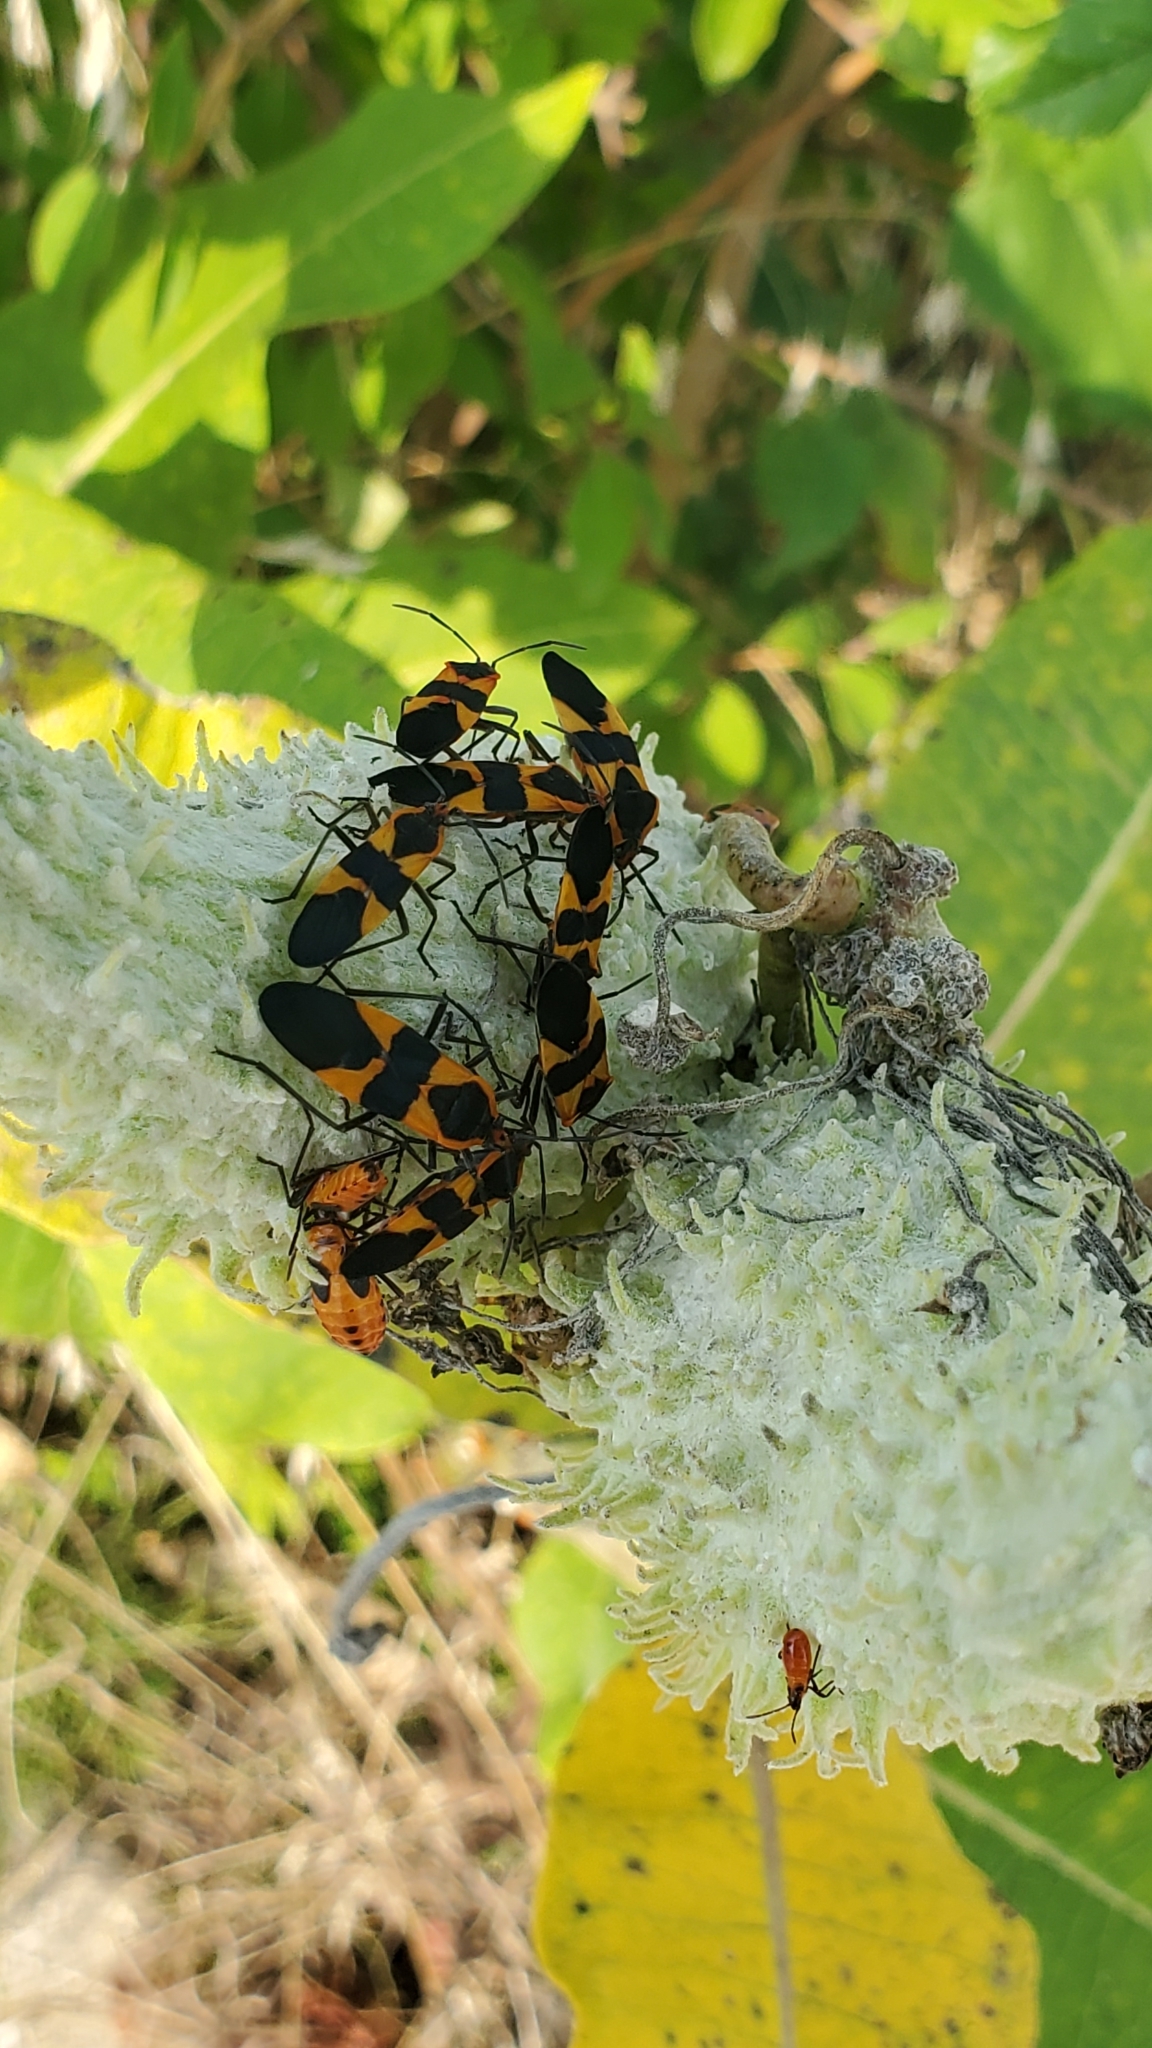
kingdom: Animalia
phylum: Arthropoda
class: Insecta
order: Hemiptera
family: Lygaeidae
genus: Oncopeltus
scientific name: Oncopeltus fasciatus
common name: Large milkweed bug
